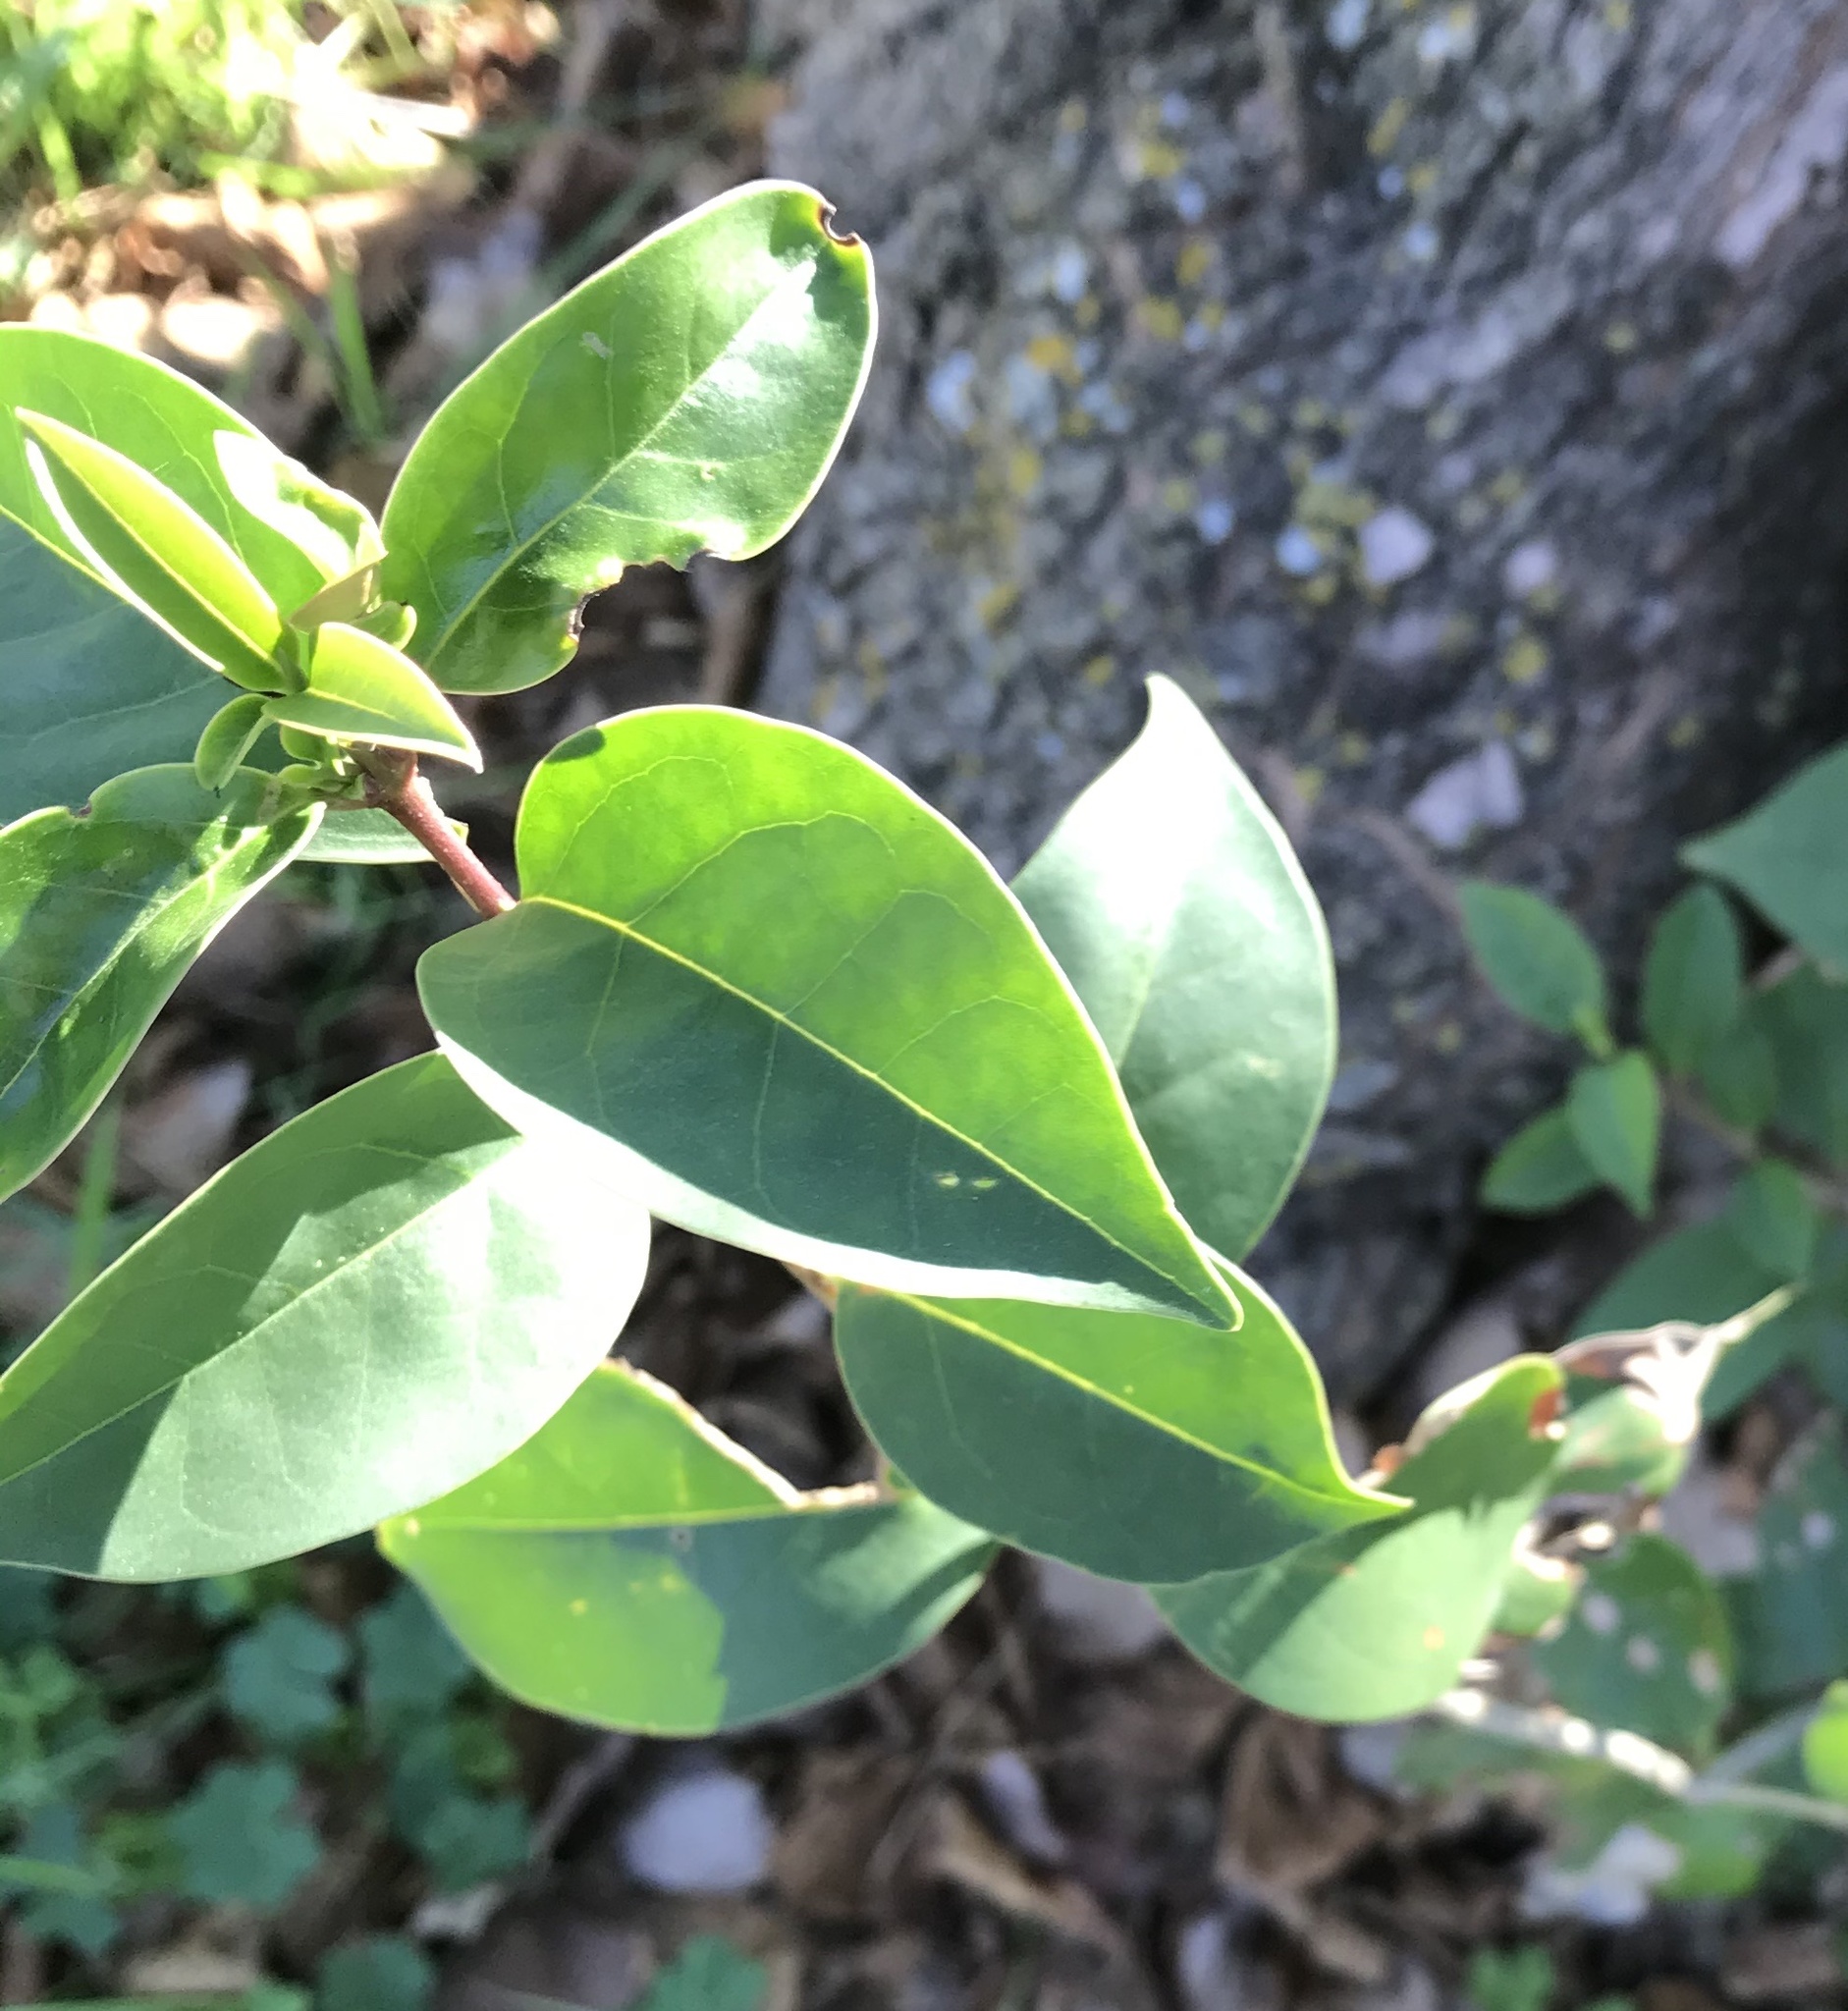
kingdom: Plantae
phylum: Tracheophyta
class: Magnoliopsida
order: Lamiales
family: Oleaceae
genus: Ligustrum
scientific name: Ligustrum lucidum
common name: Glossy privet
